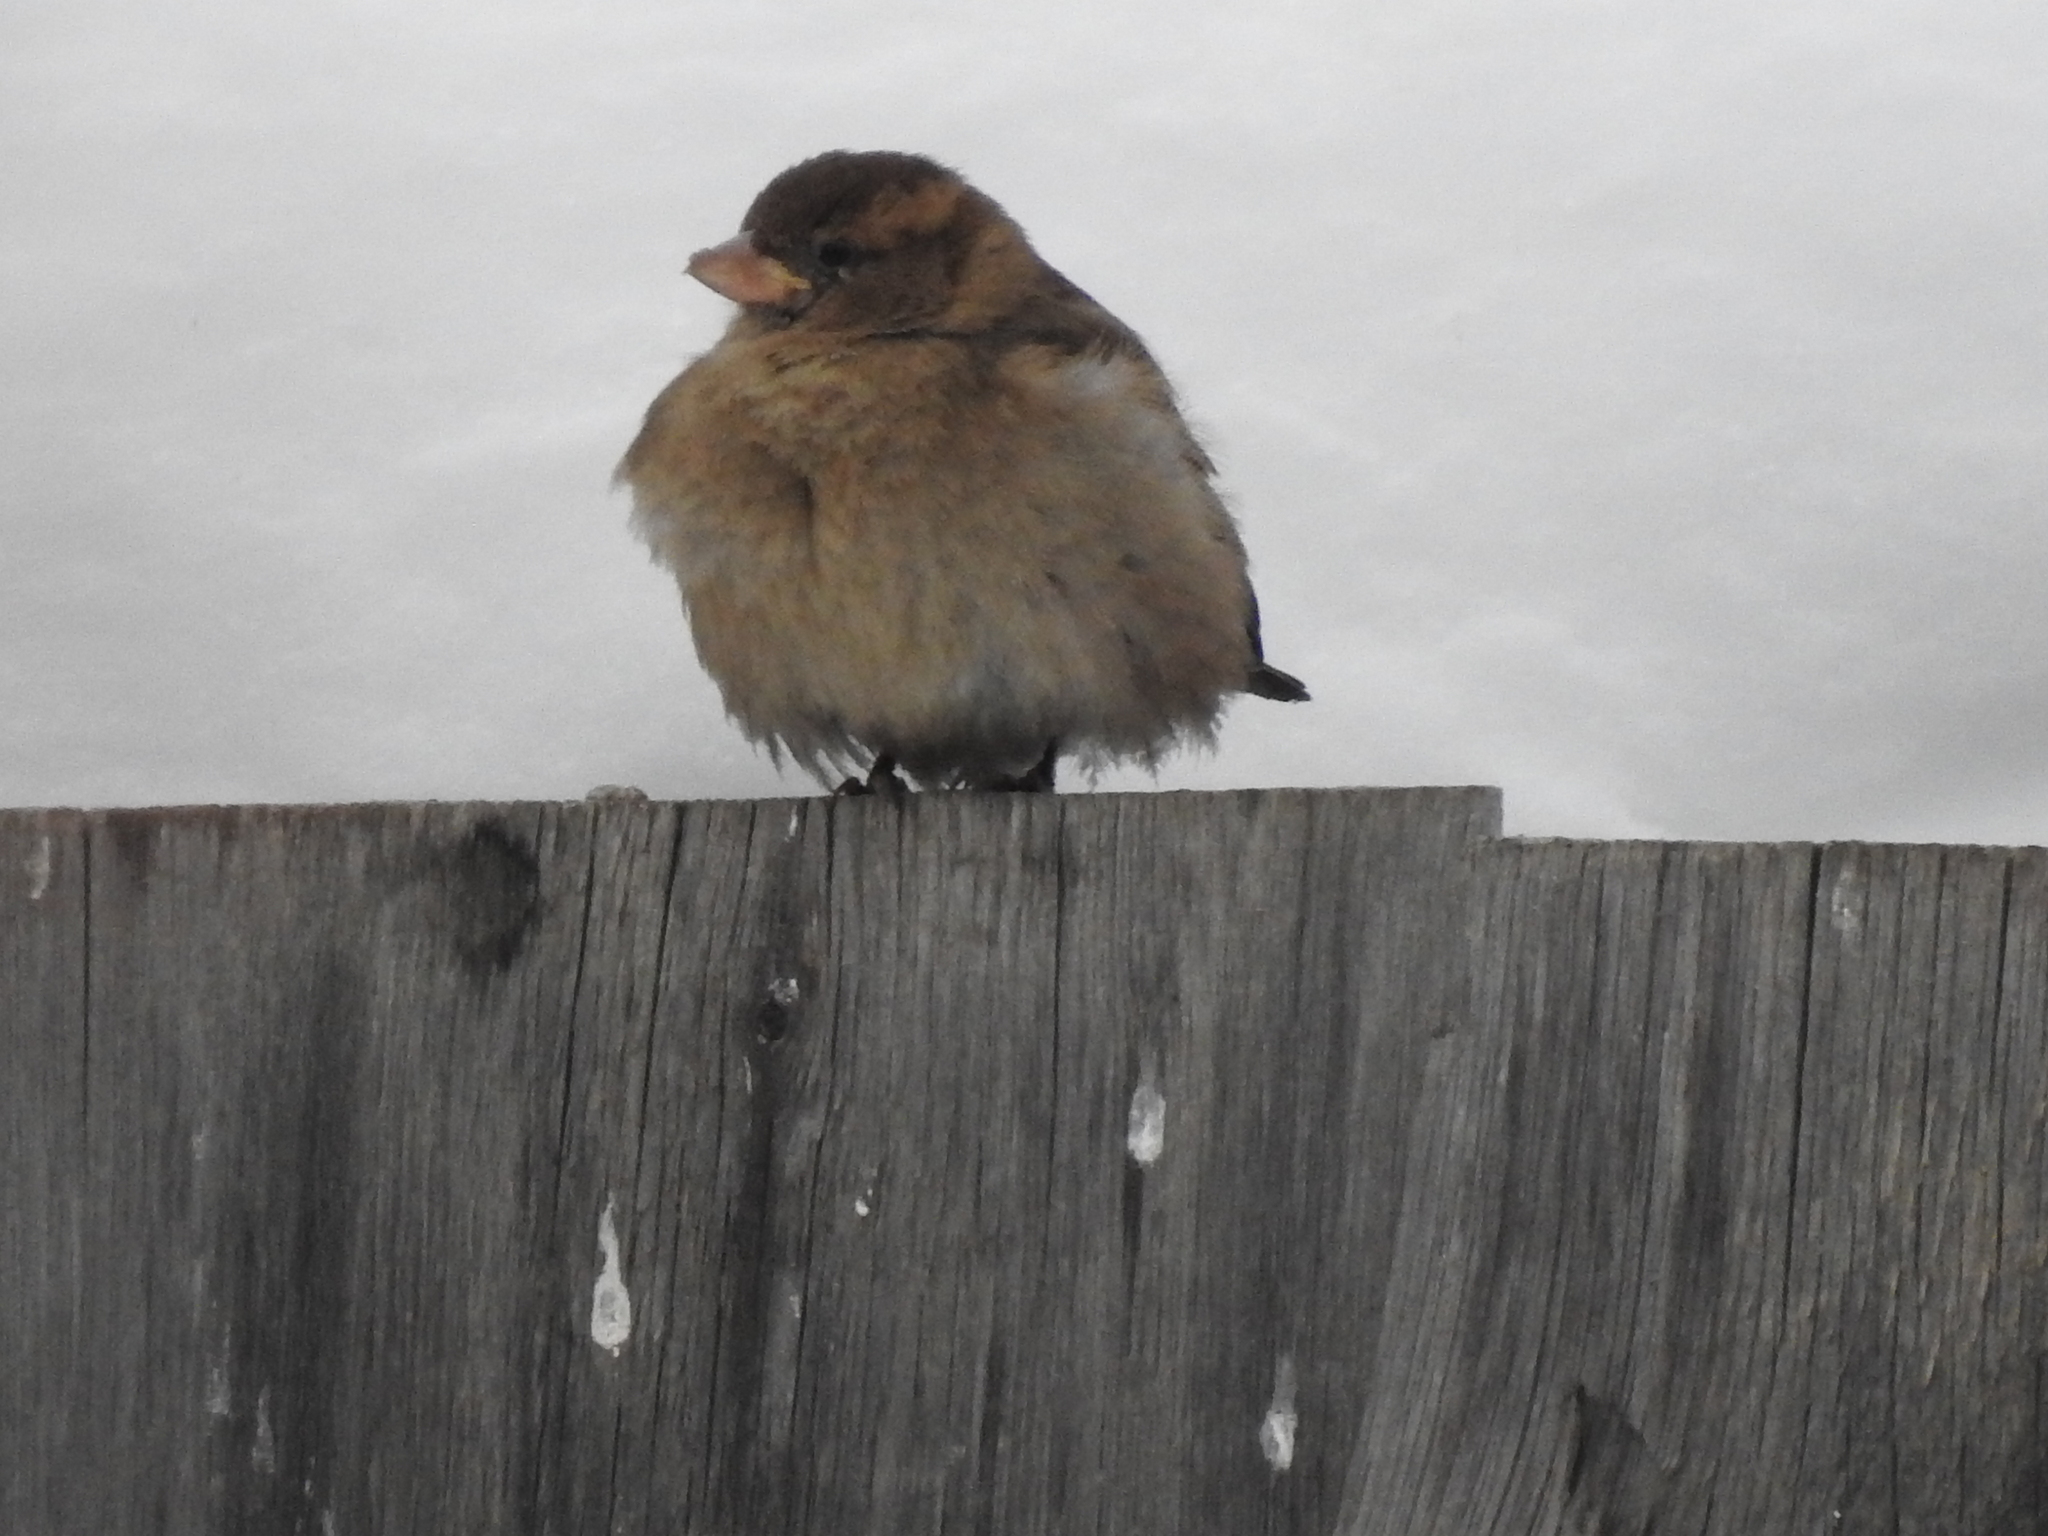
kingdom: Animalia
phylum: Chordata
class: Aves
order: Passeriformes
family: Passeridae
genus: Passer
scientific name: Passer domesticus
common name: House sparrow
